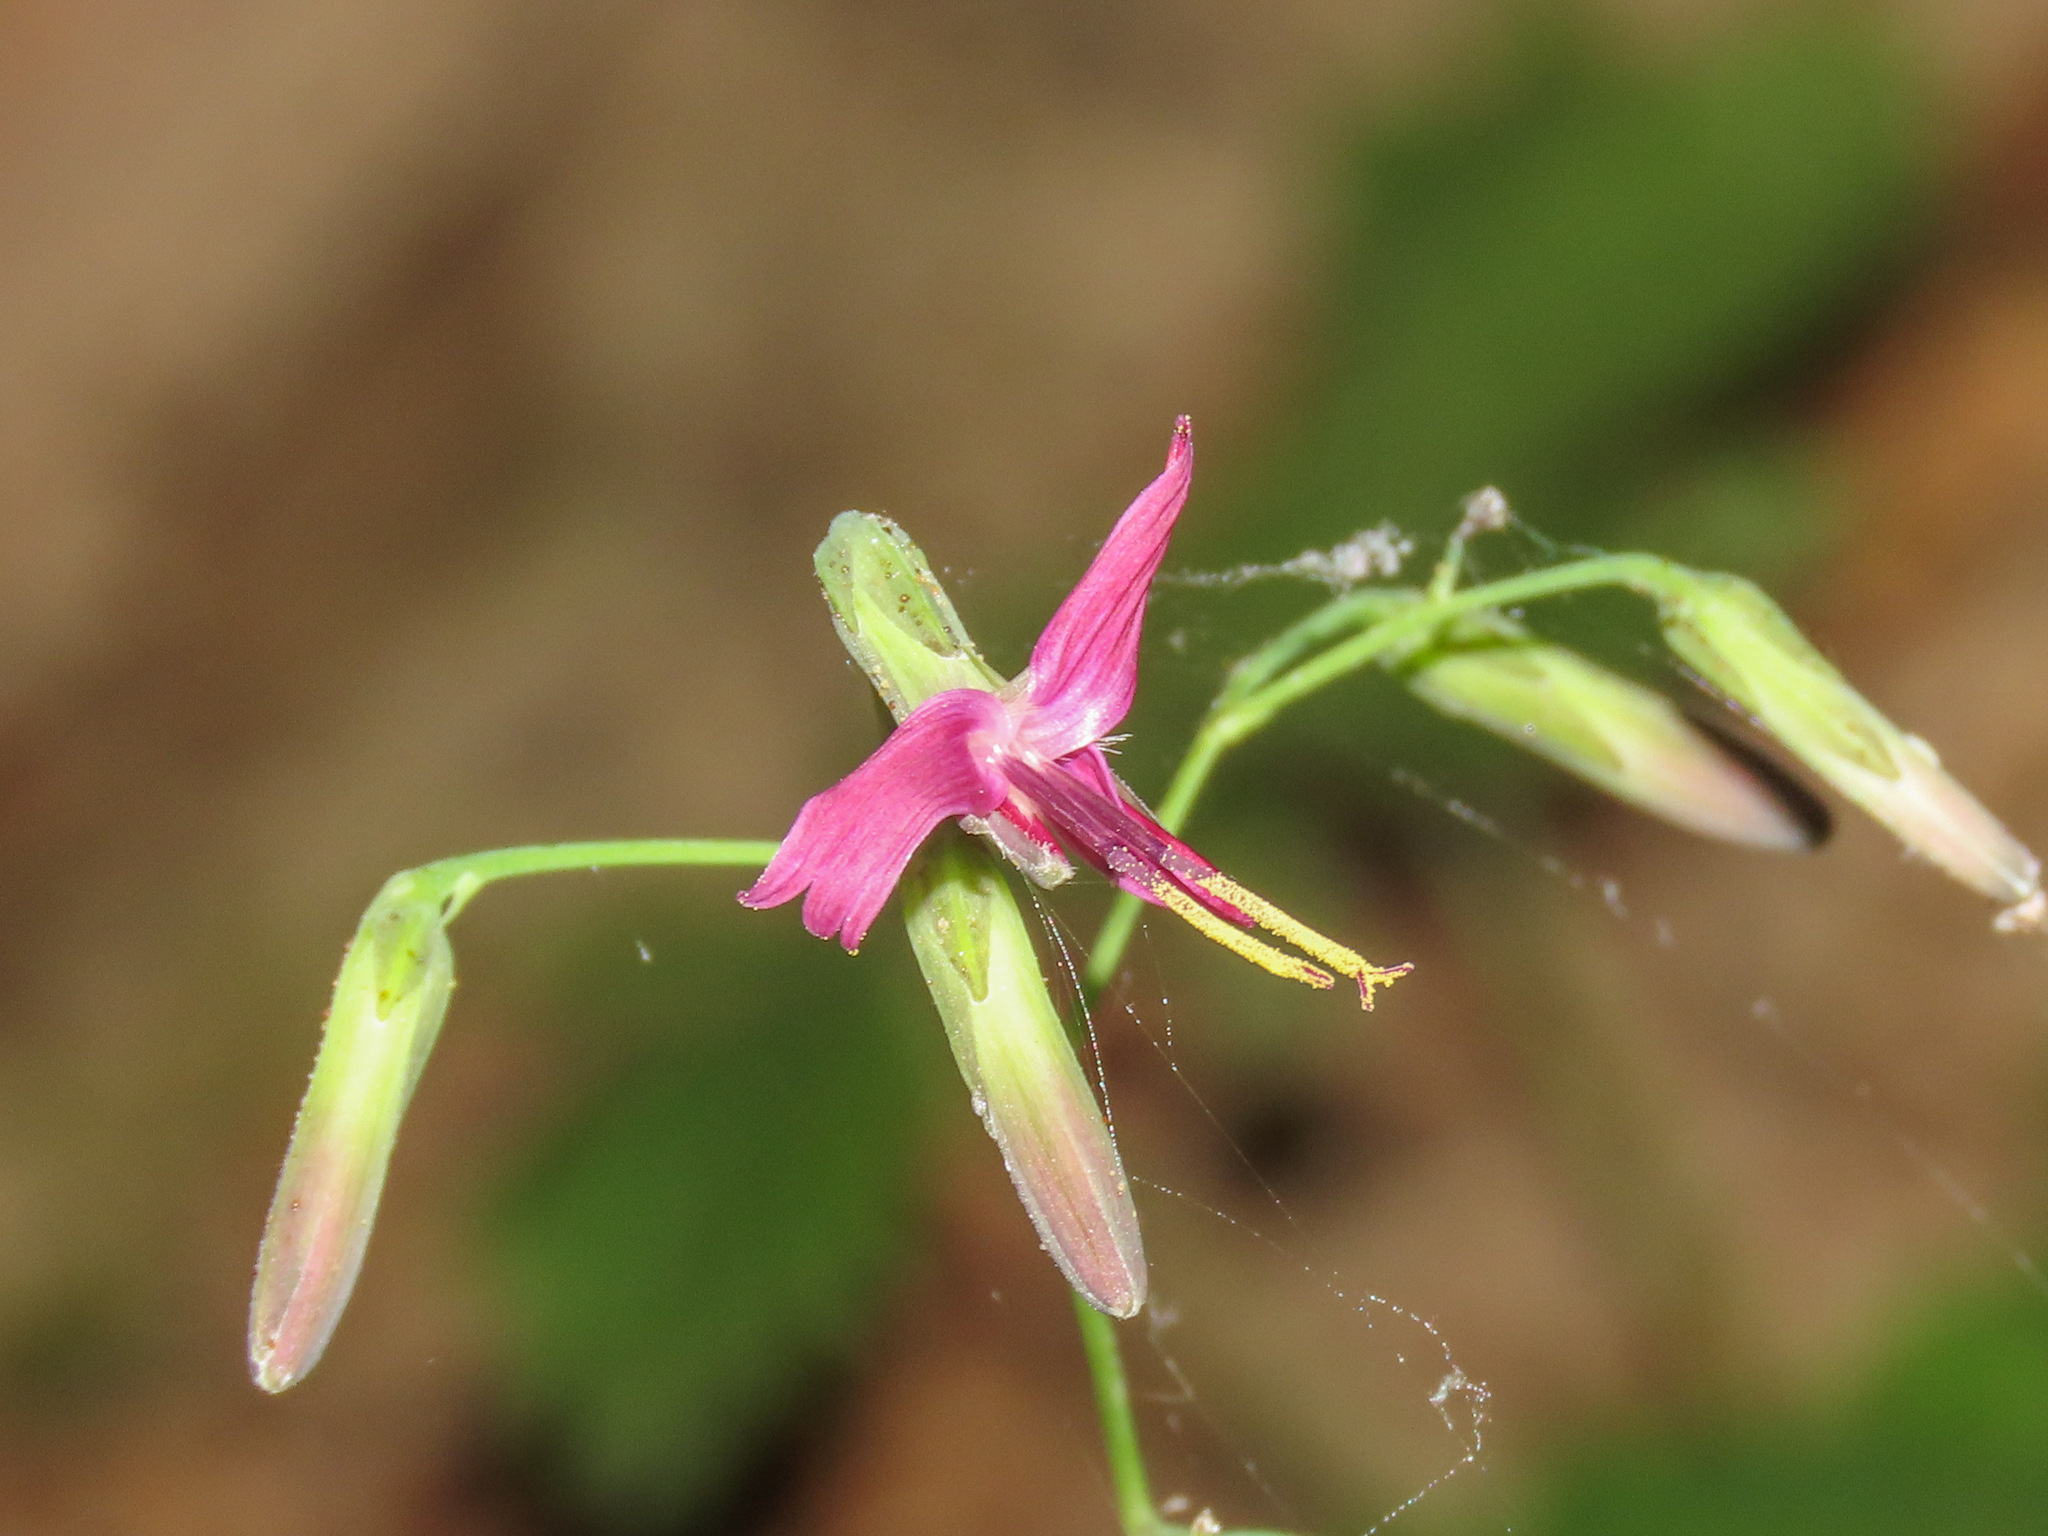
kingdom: Plantae
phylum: Tracheophyta
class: Magnoliopsida
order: Asterales
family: Asteraceae
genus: Prenanthes
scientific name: Prenanthes purpurea
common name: Purple lettuce
